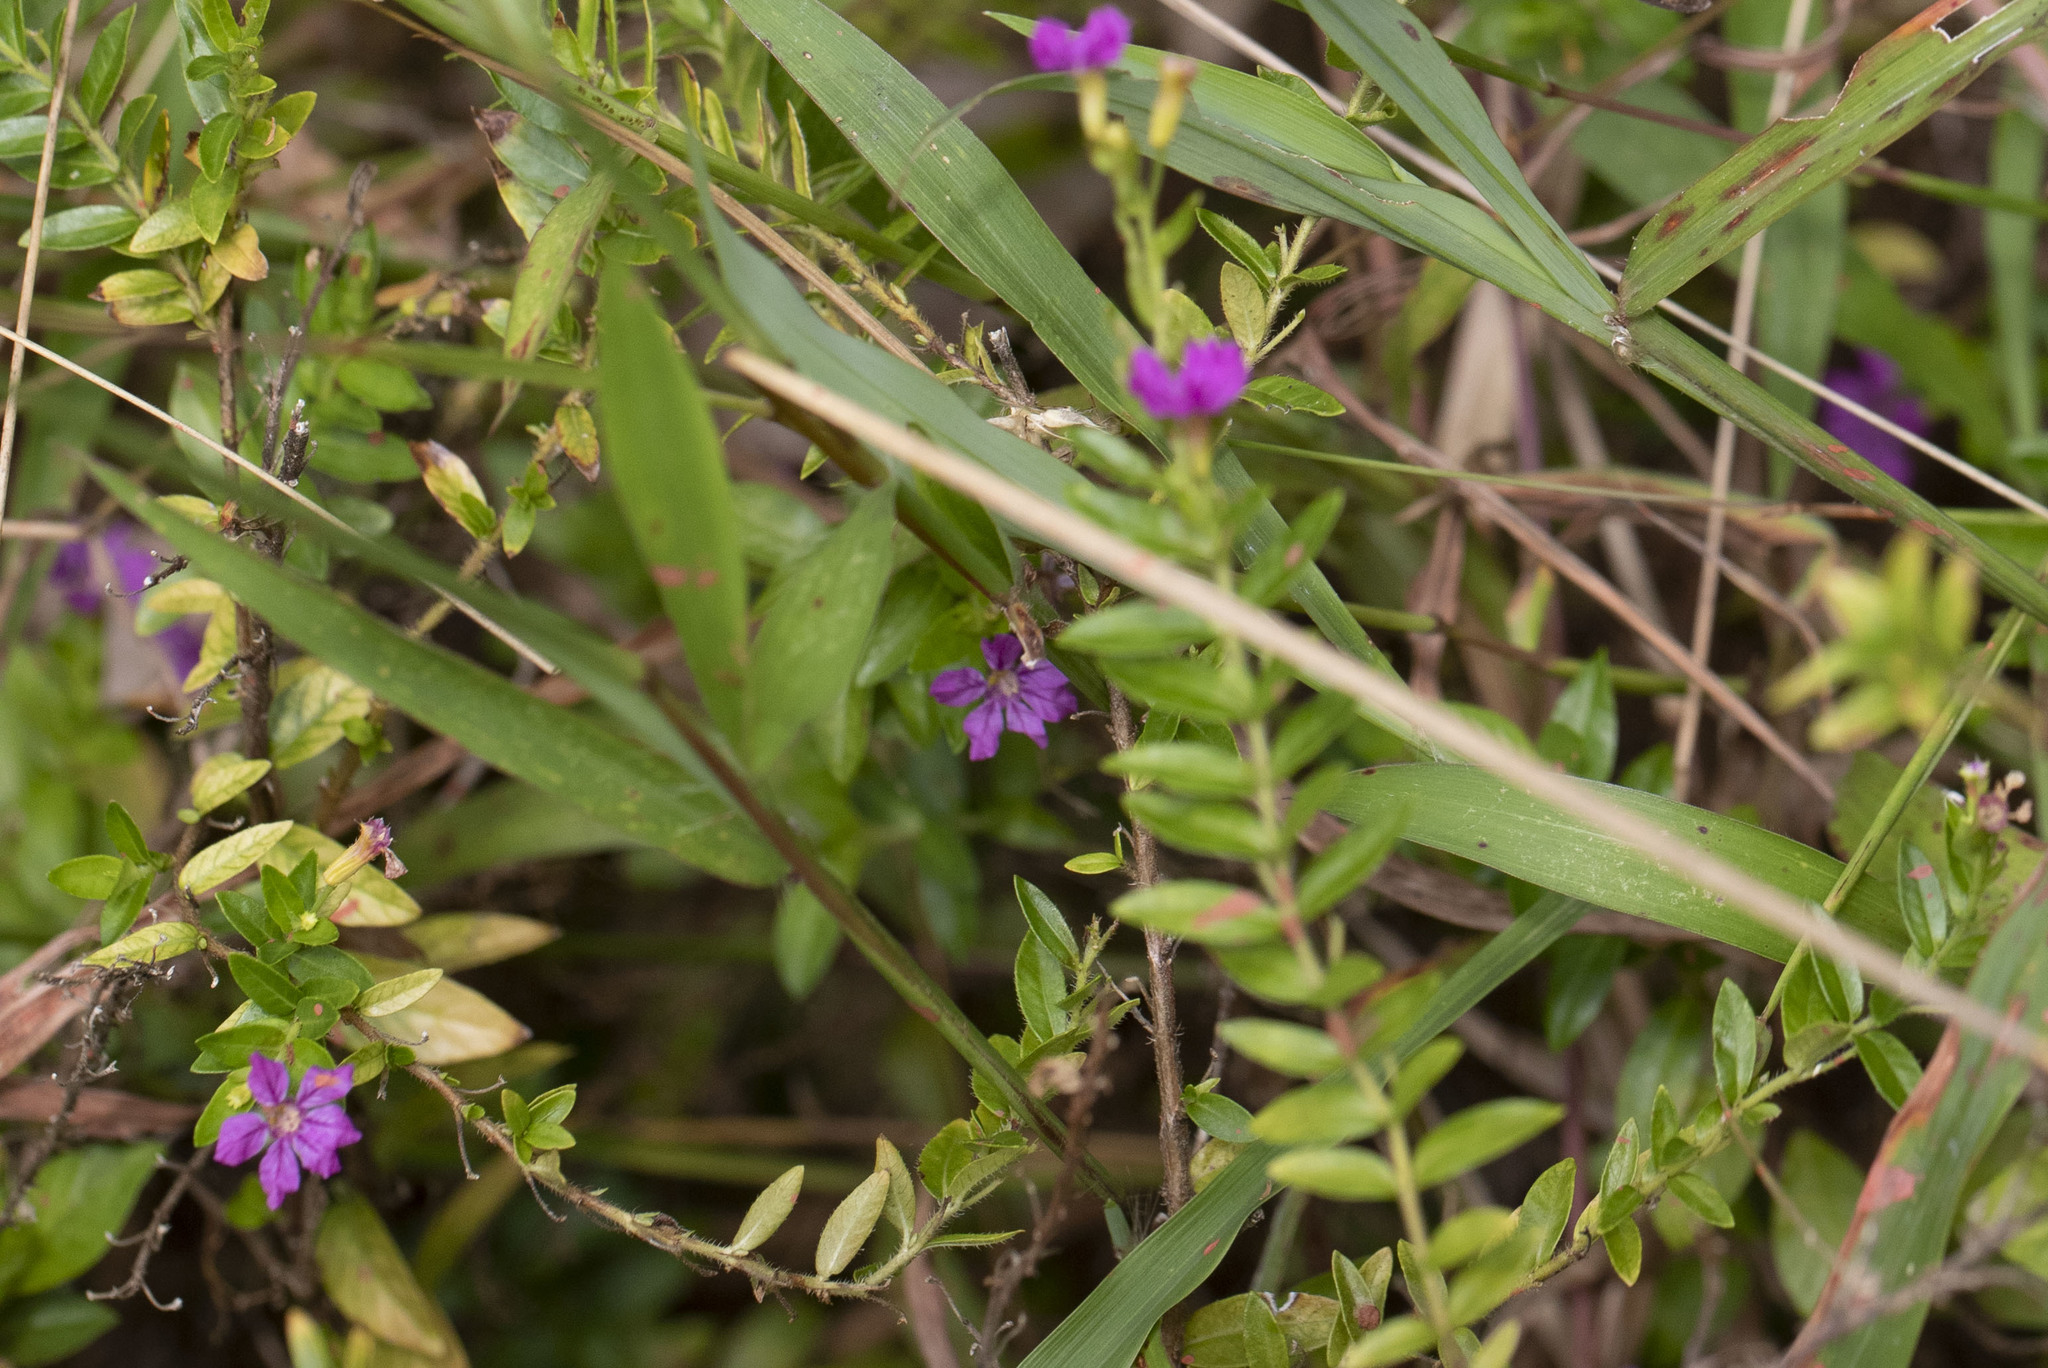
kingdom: Plantae
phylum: Tracheophyta
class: Magnoliopsida
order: Myrtales
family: Lythraceae
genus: Cuphea
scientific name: Cuphea hyssopifolia
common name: False heather
